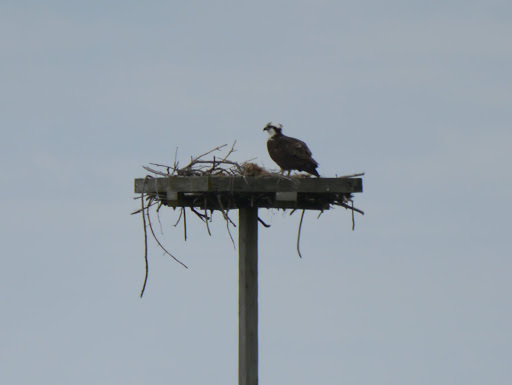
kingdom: Animalia
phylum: Chordata
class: Aves
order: Accipitriformes
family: Pandionidae
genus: Pandion
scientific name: Pandion haliaetus
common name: Osprey
